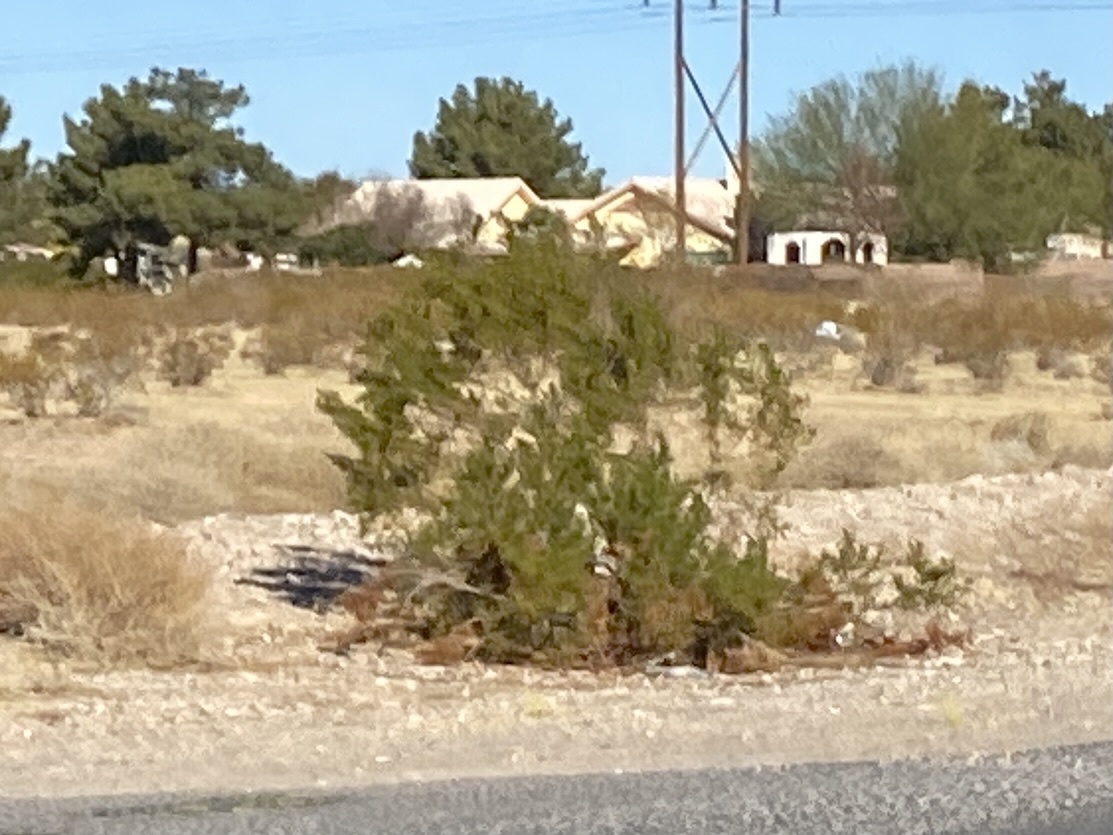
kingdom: Plantae
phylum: Tracheophyta
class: Magnoliopsida
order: Zygophyllales
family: Zygophyllaceae
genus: Larrea
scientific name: Larrea tridentata
